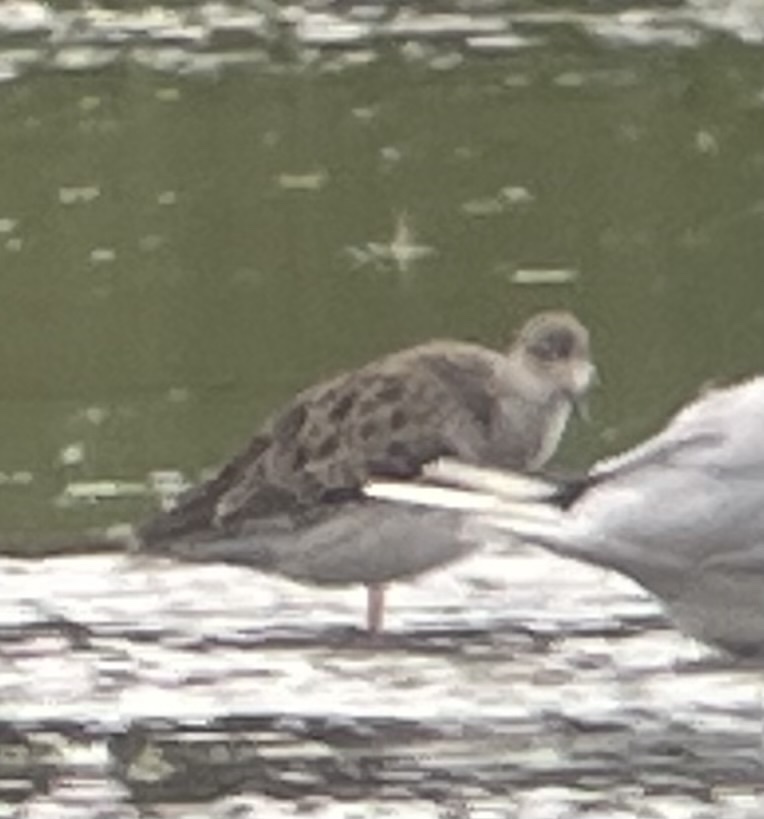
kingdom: Animalia
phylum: Chordata
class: Aves
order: Charadriiformes
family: Scolopacidae
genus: Calidris
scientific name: Calidris pugnax
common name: Ruff
